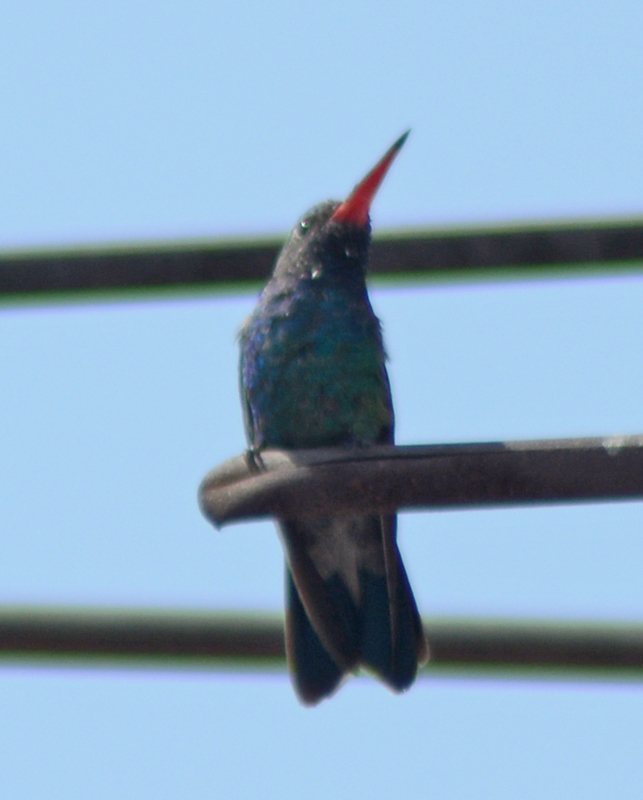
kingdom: Animalia
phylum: Chordata
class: Aves
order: Apodiformes
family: Trochilidae
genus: Cynanthus
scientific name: Cynanthus latirostris
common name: Broad-billed hummingbird
